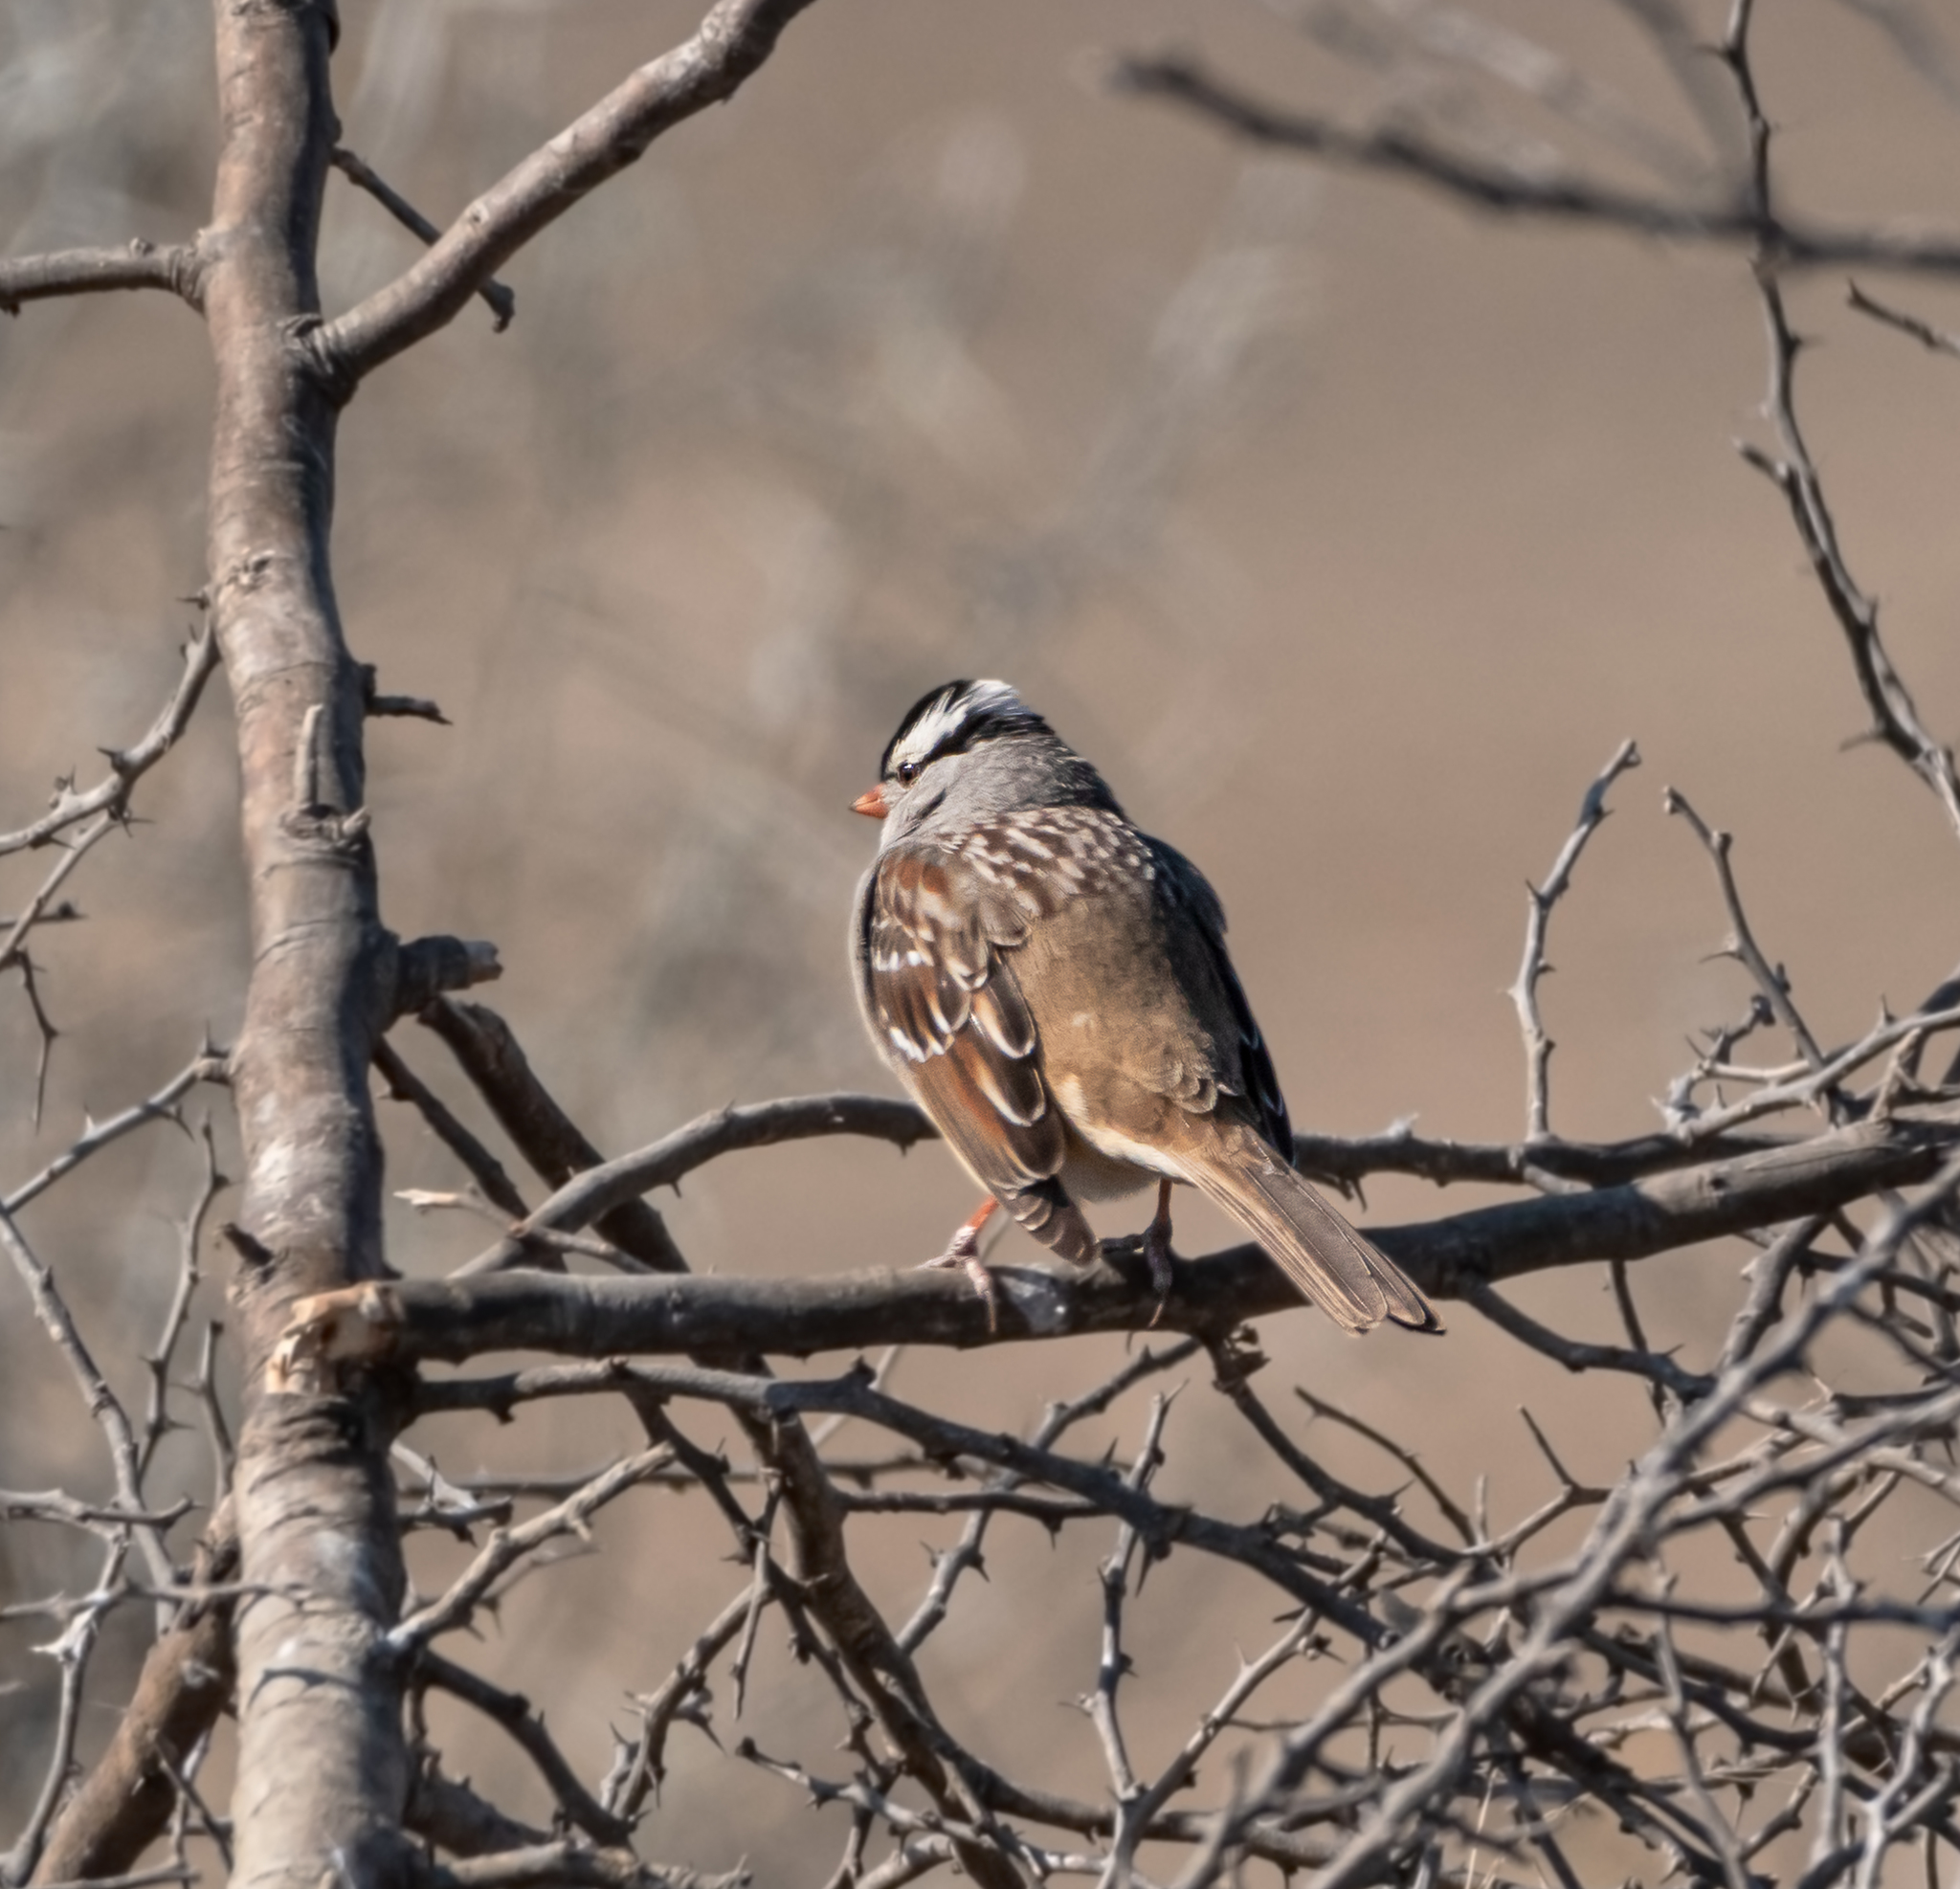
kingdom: Animalia
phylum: Chordata
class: Aves
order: Passeriformes
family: Passerellidae
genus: Zonotrichia
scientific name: Zonotrichia leucophrys
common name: White-crowned sparrow
